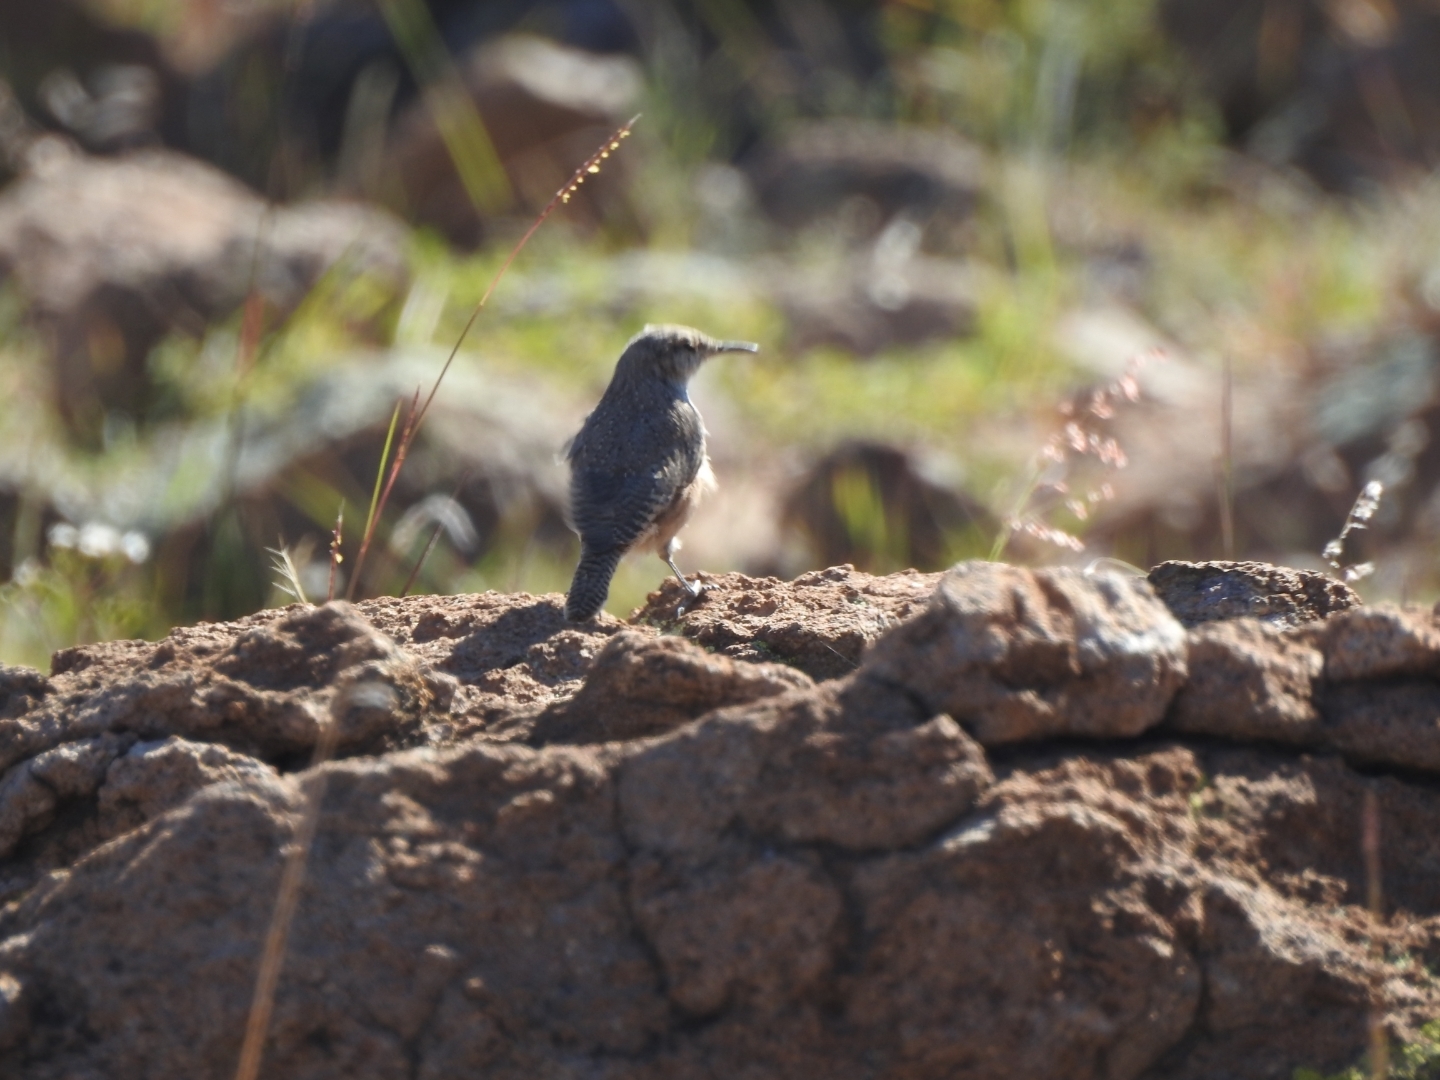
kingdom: Animalia
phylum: Chordata
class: Aves
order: Passeriformes
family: Troglodytidae
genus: Salpinctes
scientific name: Salpinctes obsoletus
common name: Rock wren
